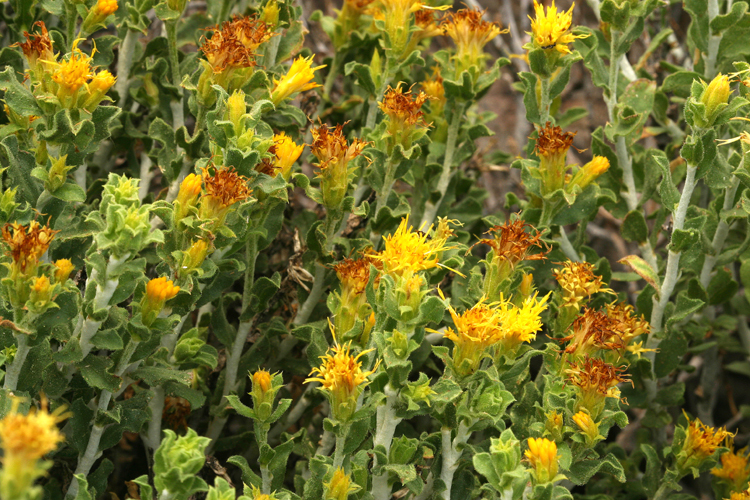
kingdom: Plantae
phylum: Tracheophyta
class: Magnoliopsida
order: Asterales
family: Asteraceae
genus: Ericameria
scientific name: Ericameria discoidea
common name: Sharp-scale goldenweed
